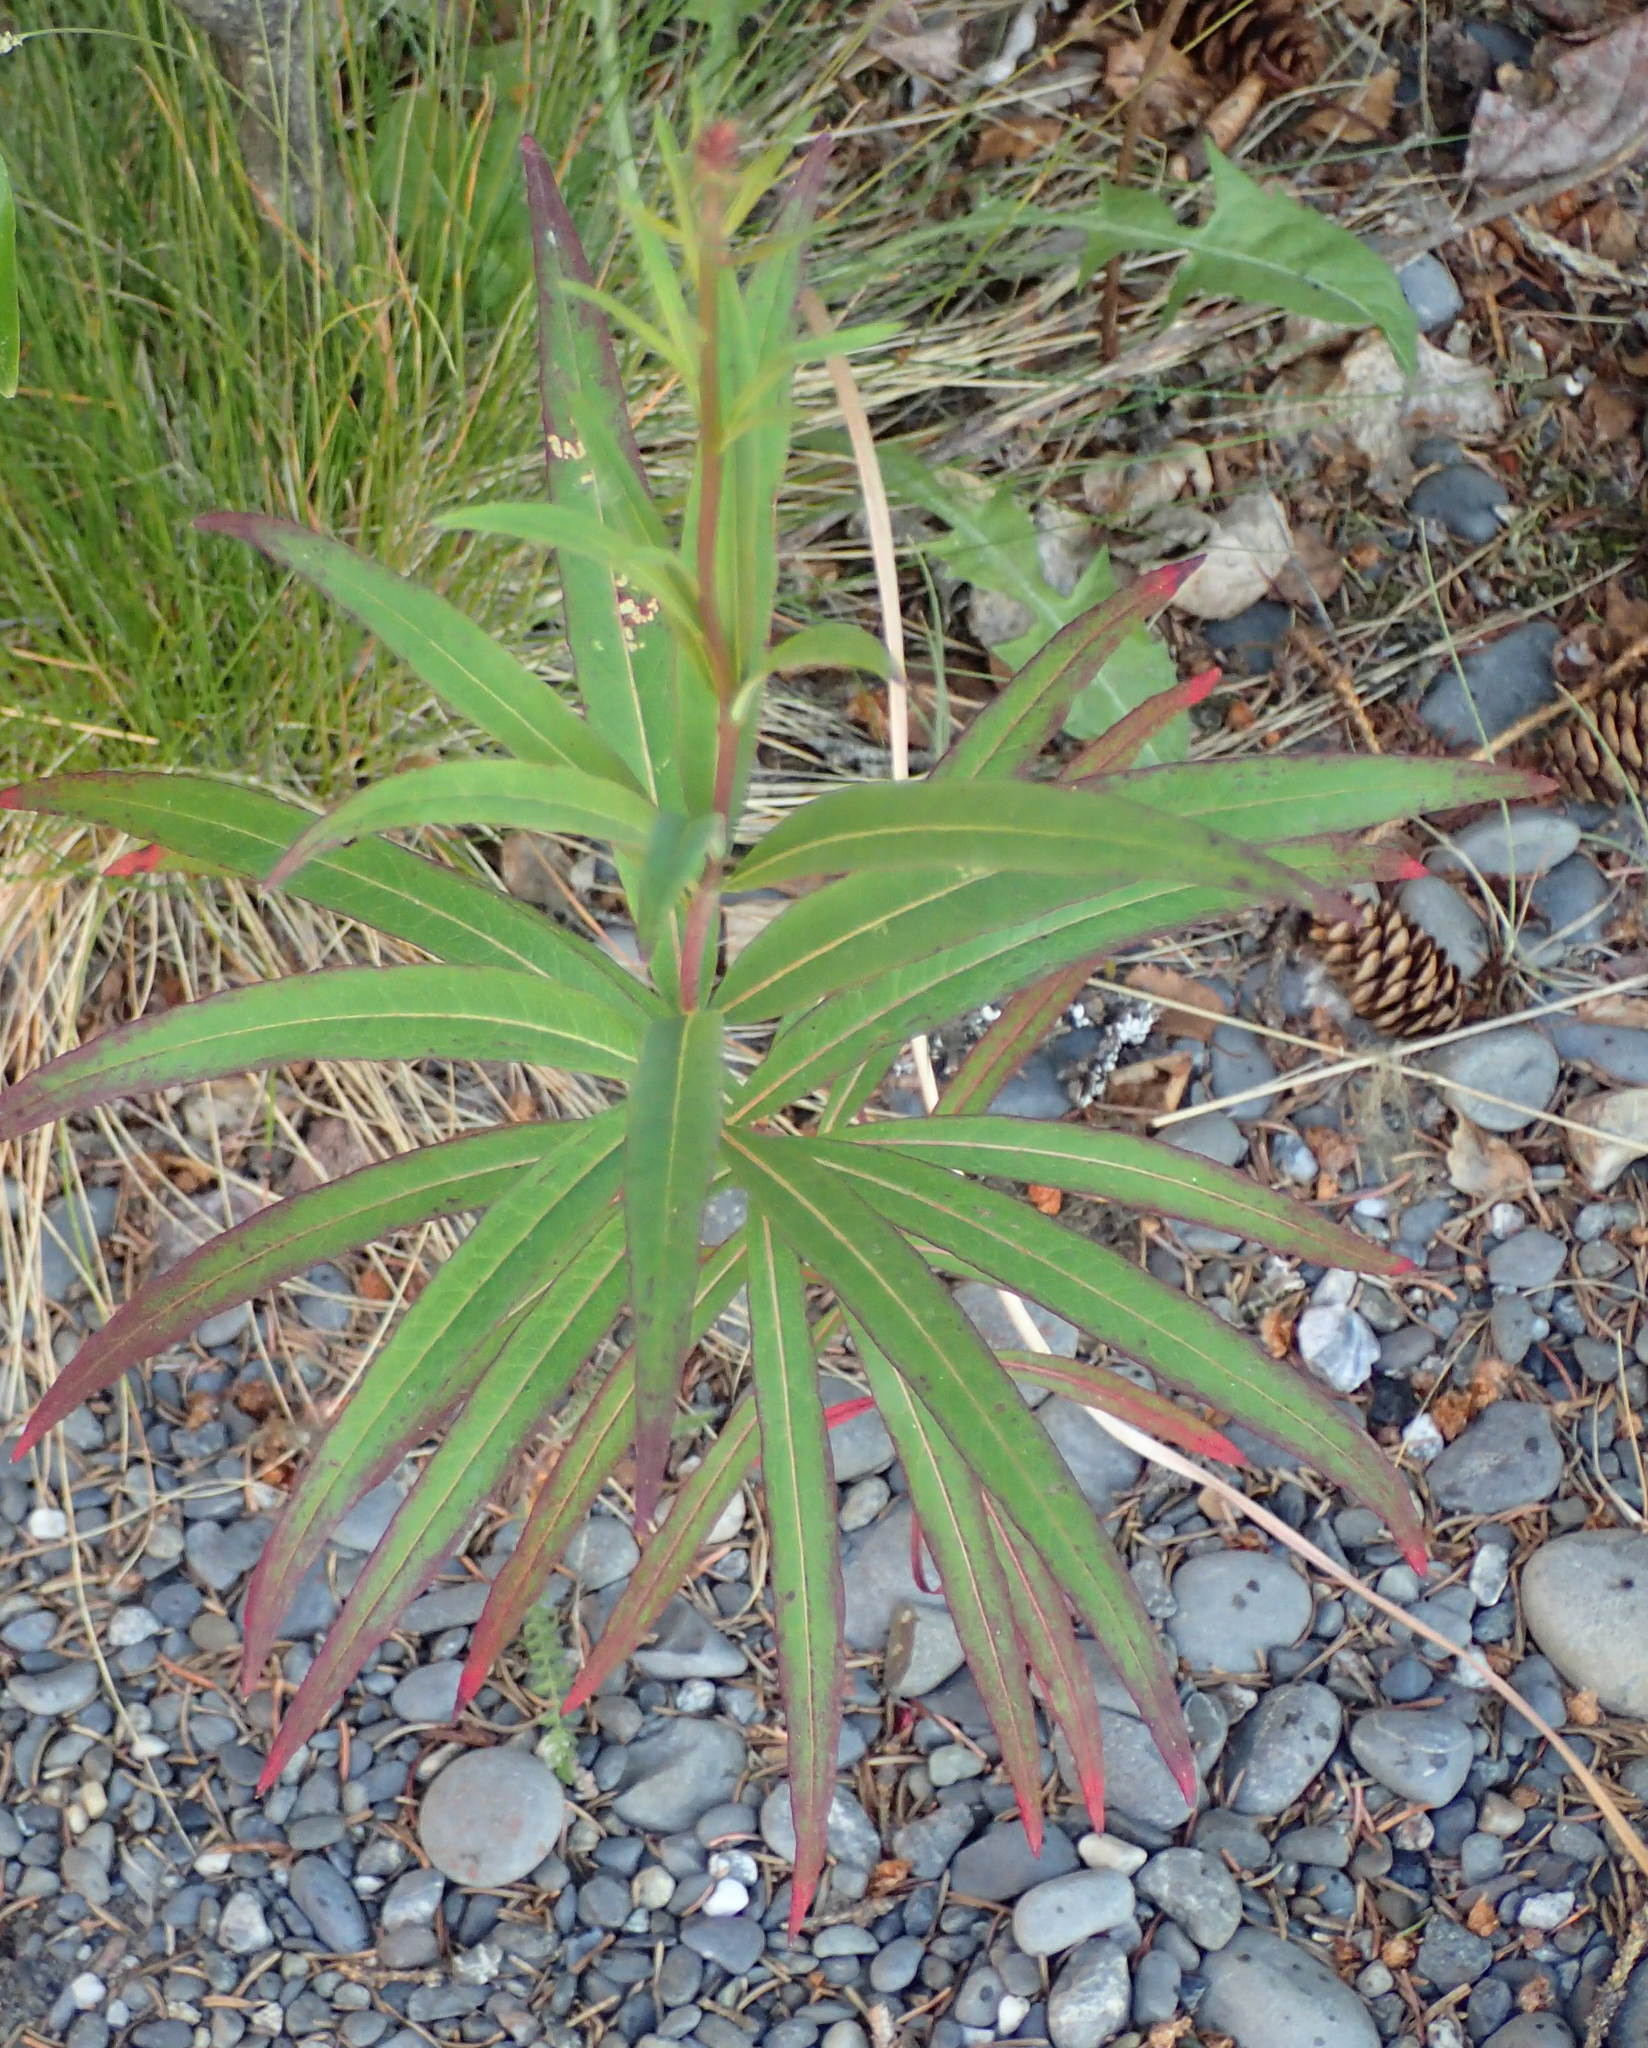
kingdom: Plantae
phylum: Tracheophyta
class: Magnoliopsida
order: Myrtales
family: Onagraceae
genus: Chamaenerion
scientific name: Chamaenerion angustifolium
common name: Fireweed
